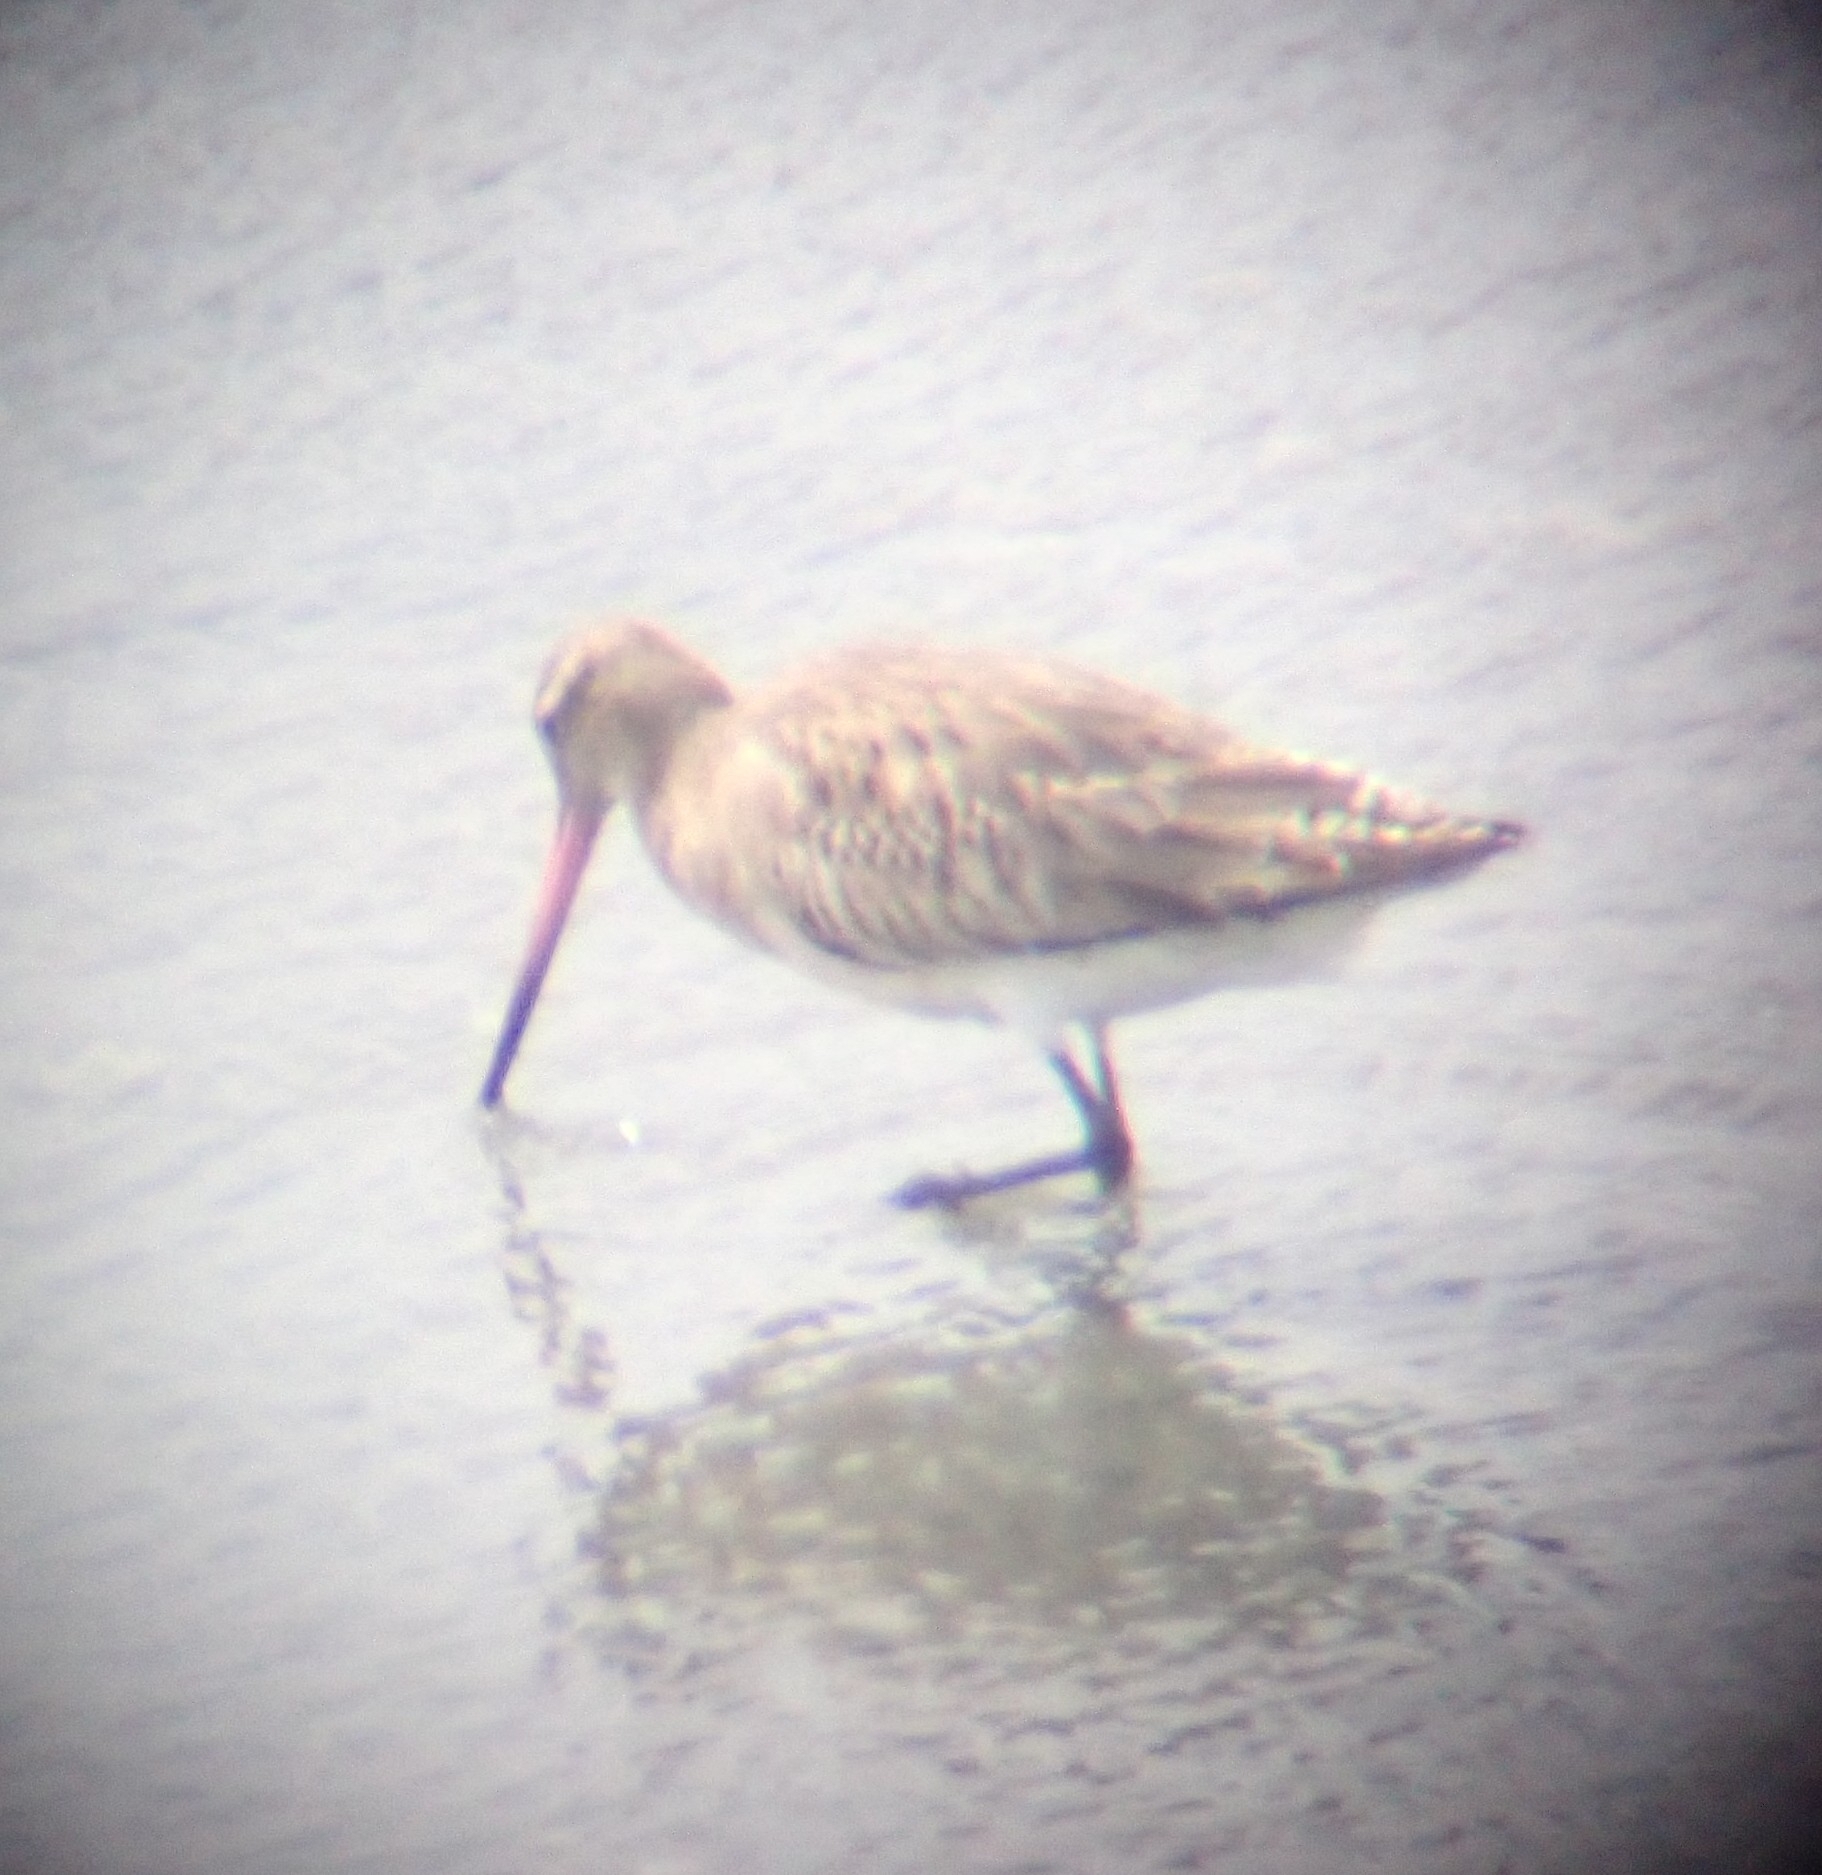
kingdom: Animalia
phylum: Chordata
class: Aves
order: Charadriiformes
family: Scolopacidae
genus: Limosa
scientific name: Limosa lapponica
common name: Bar-tailed godwit
